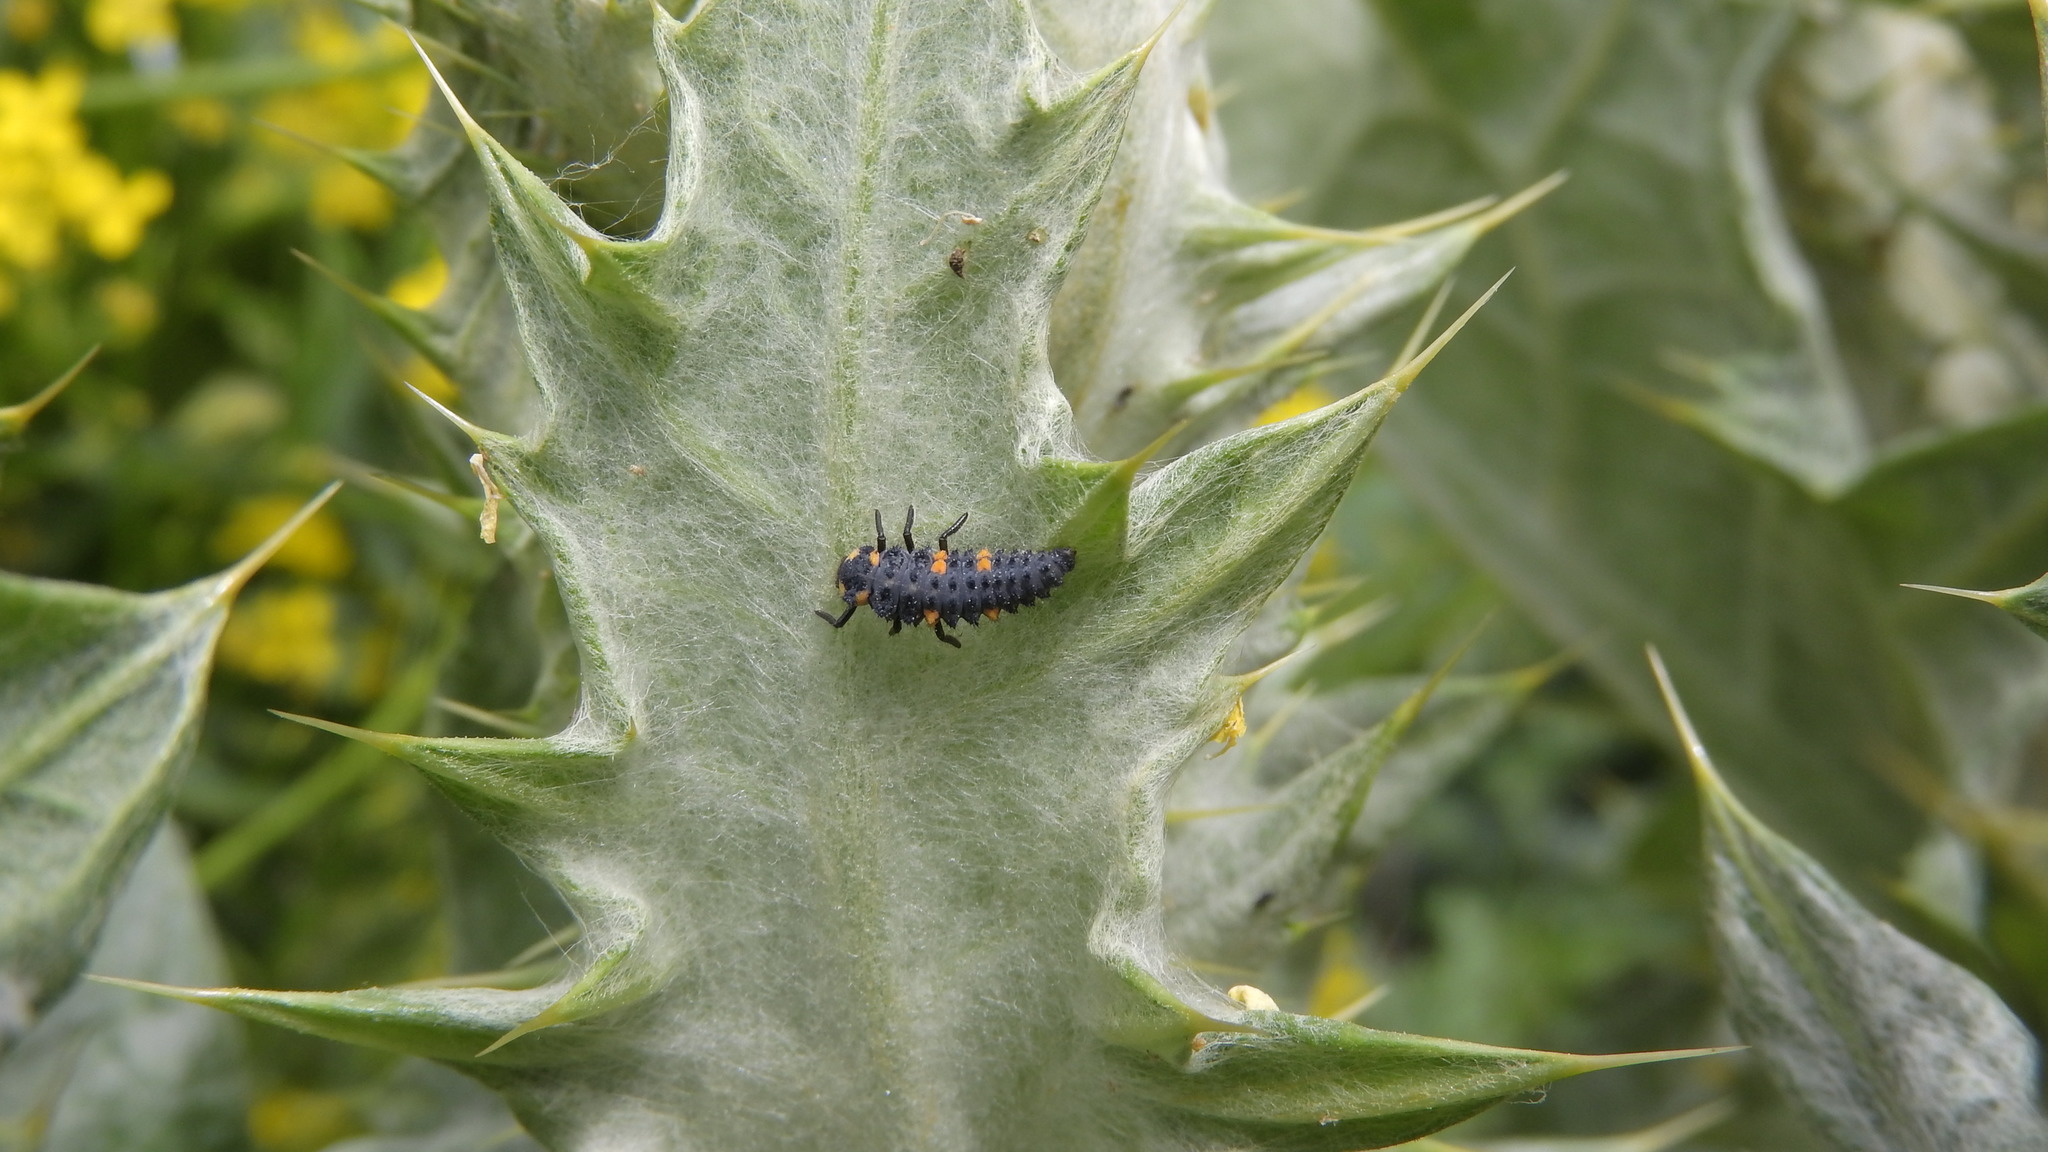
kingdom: Animalia
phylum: Arthropoda
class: Insecta
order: Coleoptera
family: Coccinellidae
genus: Coccinella
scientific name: Coccinella septempunctata
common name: Sevenspotted lady beetle
